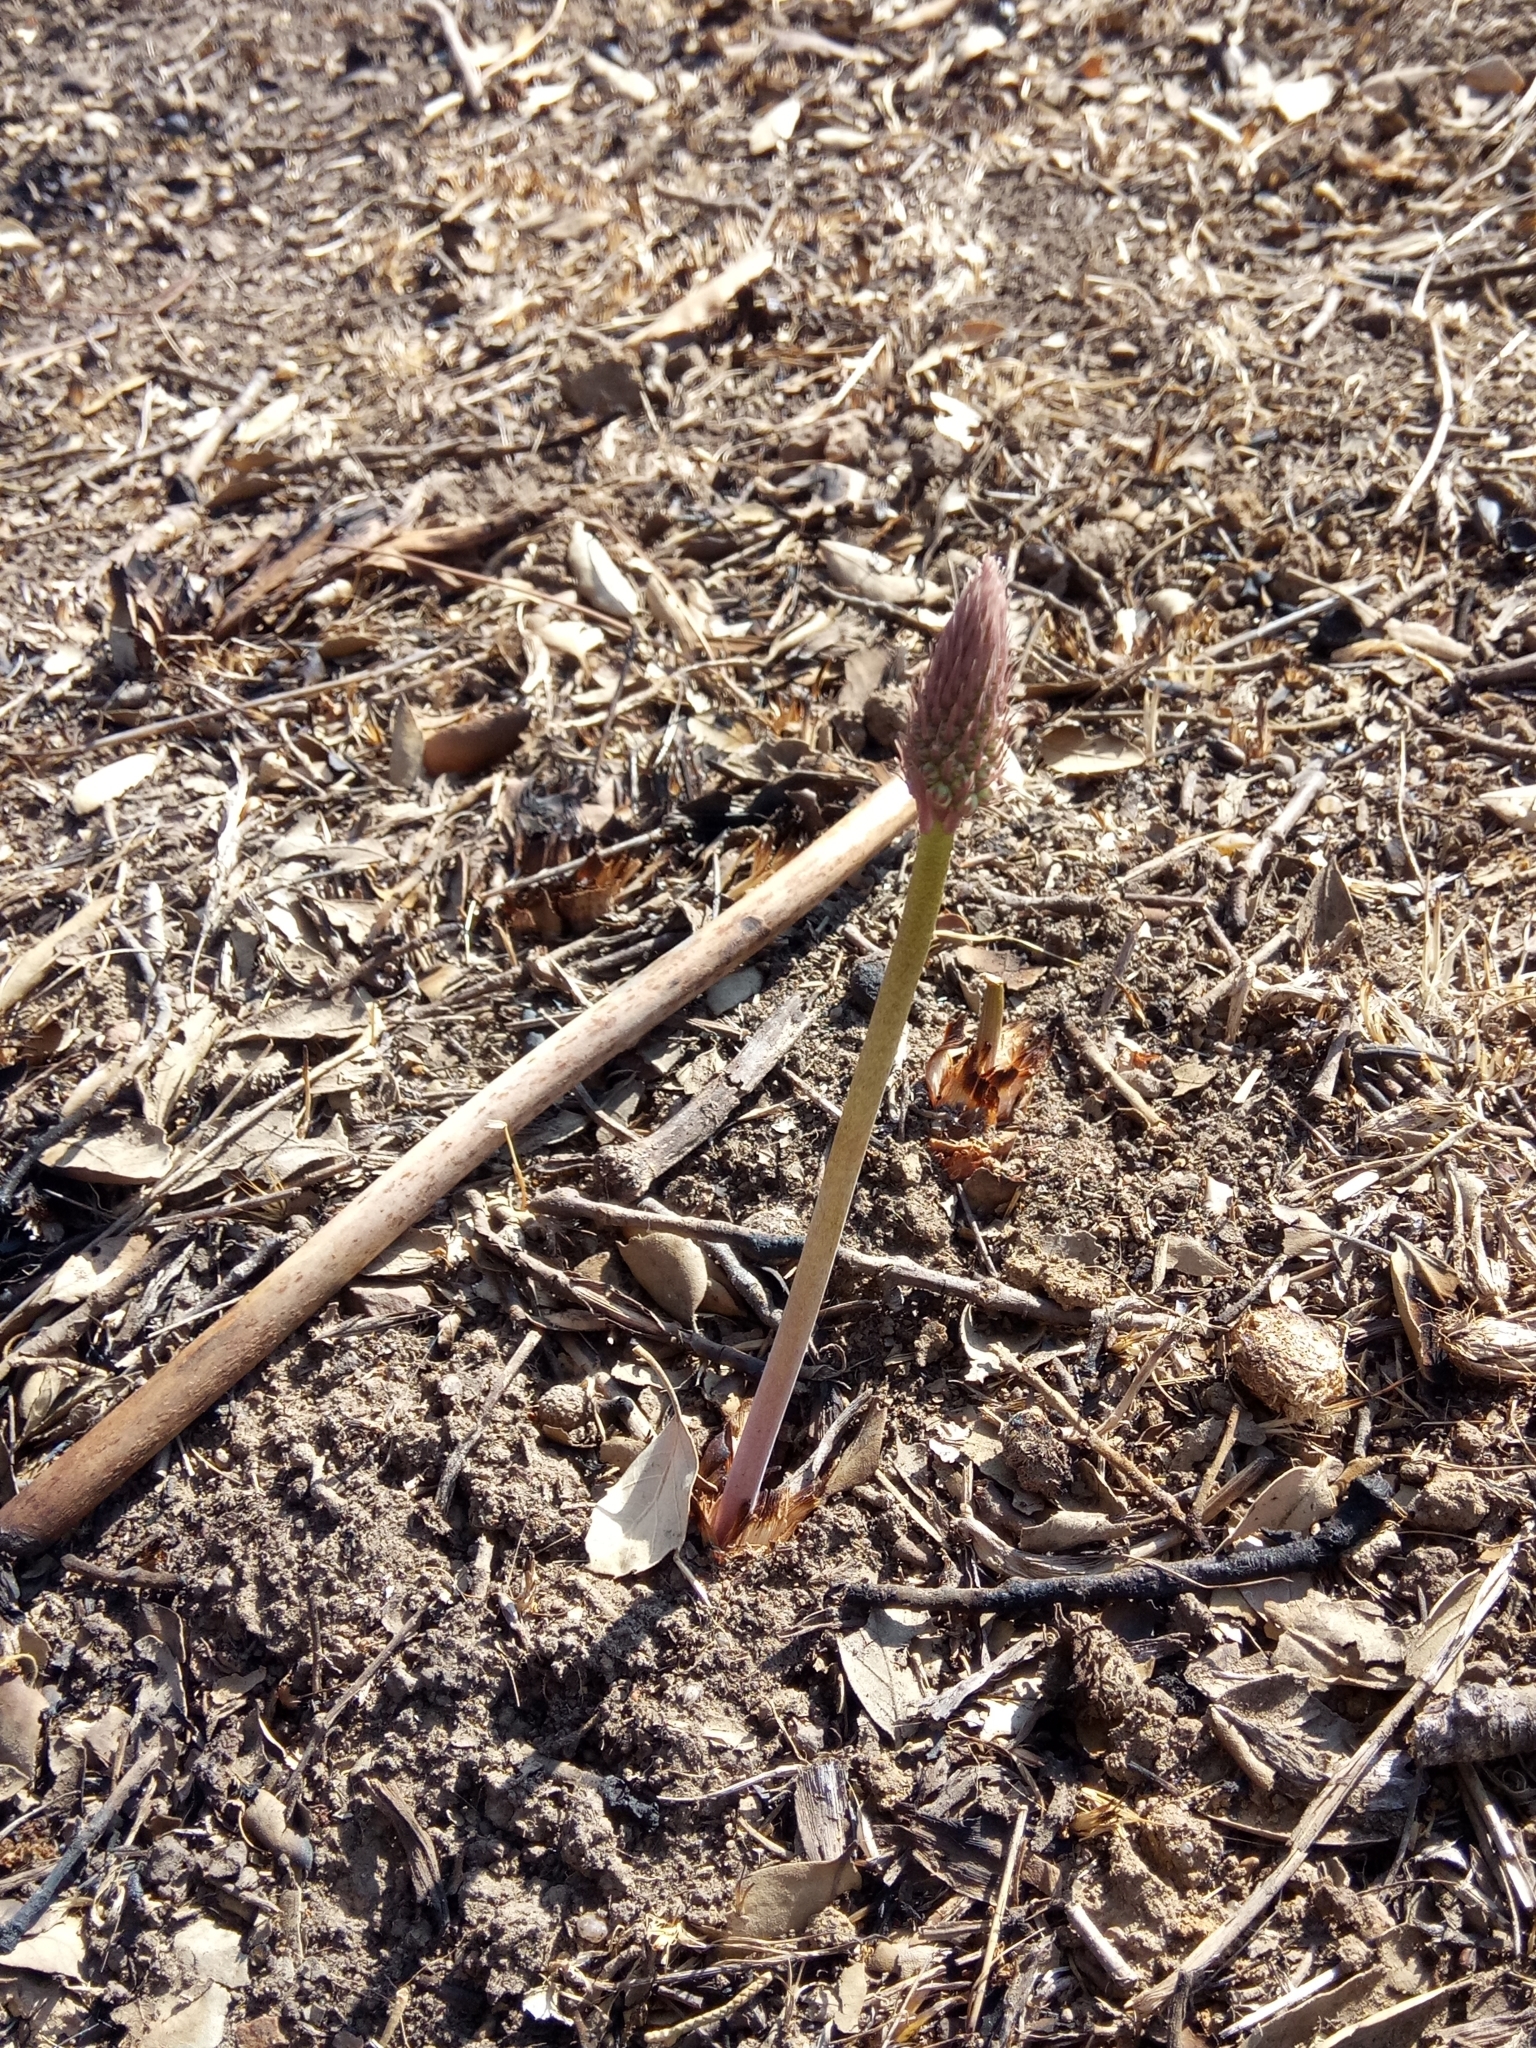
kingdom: Plantae
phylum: Tracheophyta
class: Liliopsida
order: Asparagales
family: Asparagaceae
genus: Drimia
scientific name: Drimia anthericoides
